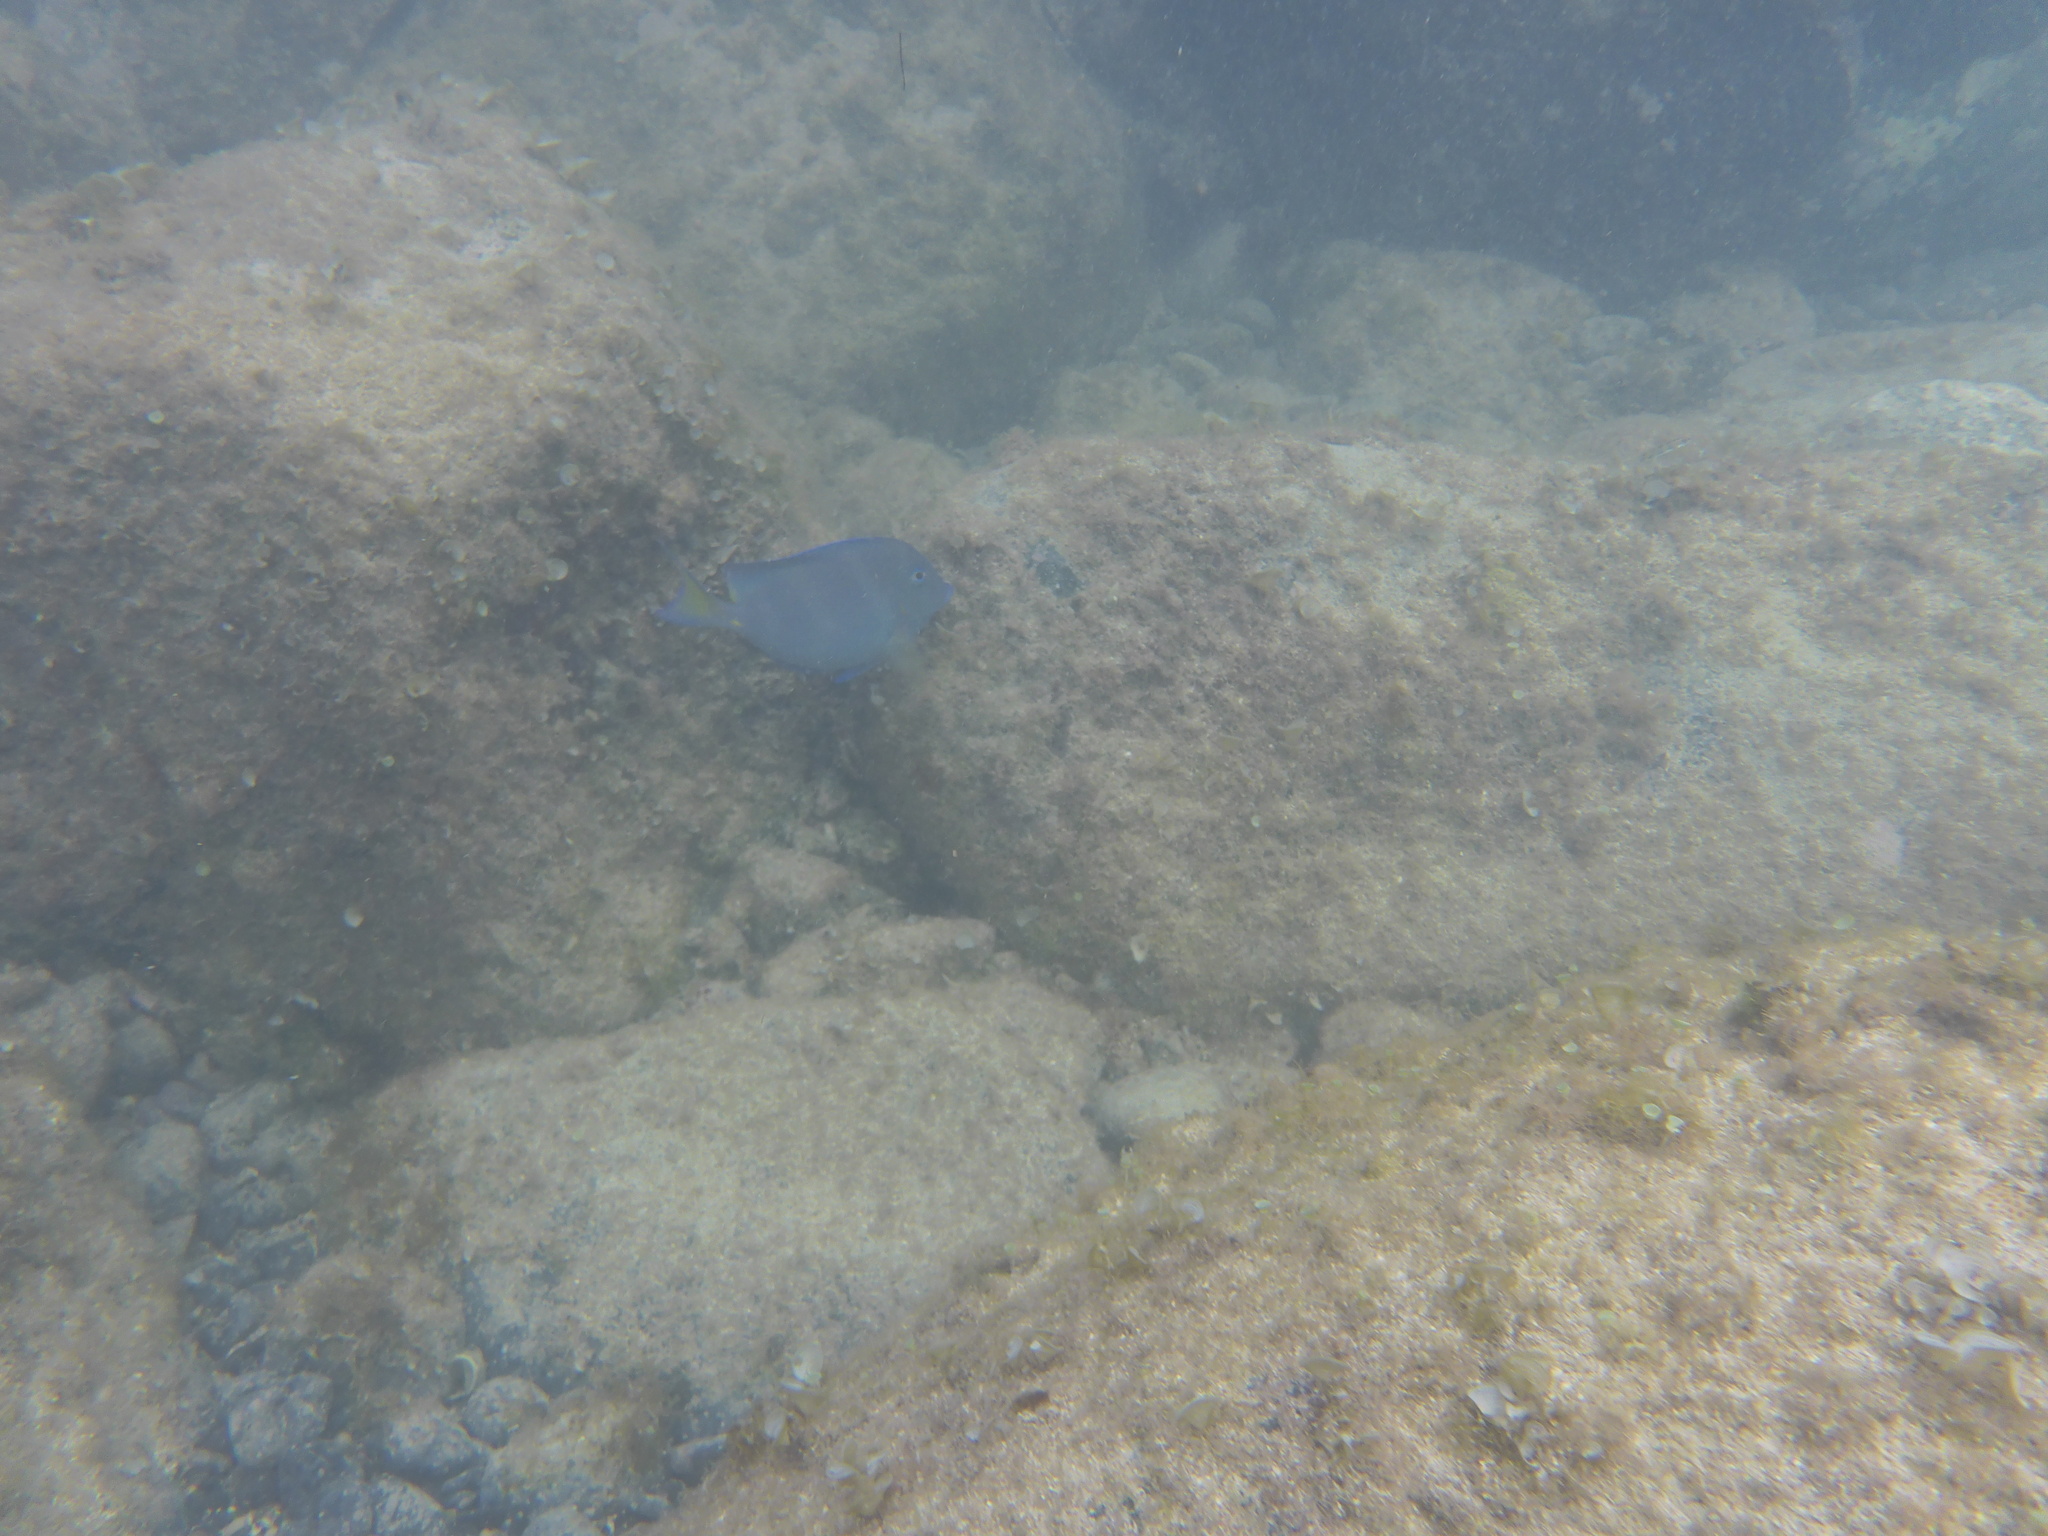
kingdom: Animalia
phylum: Chordata
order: Perciformes
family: Acanthuridae
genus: Acanthurus
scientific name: Acanthurus coeruleus
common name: Blue tang
